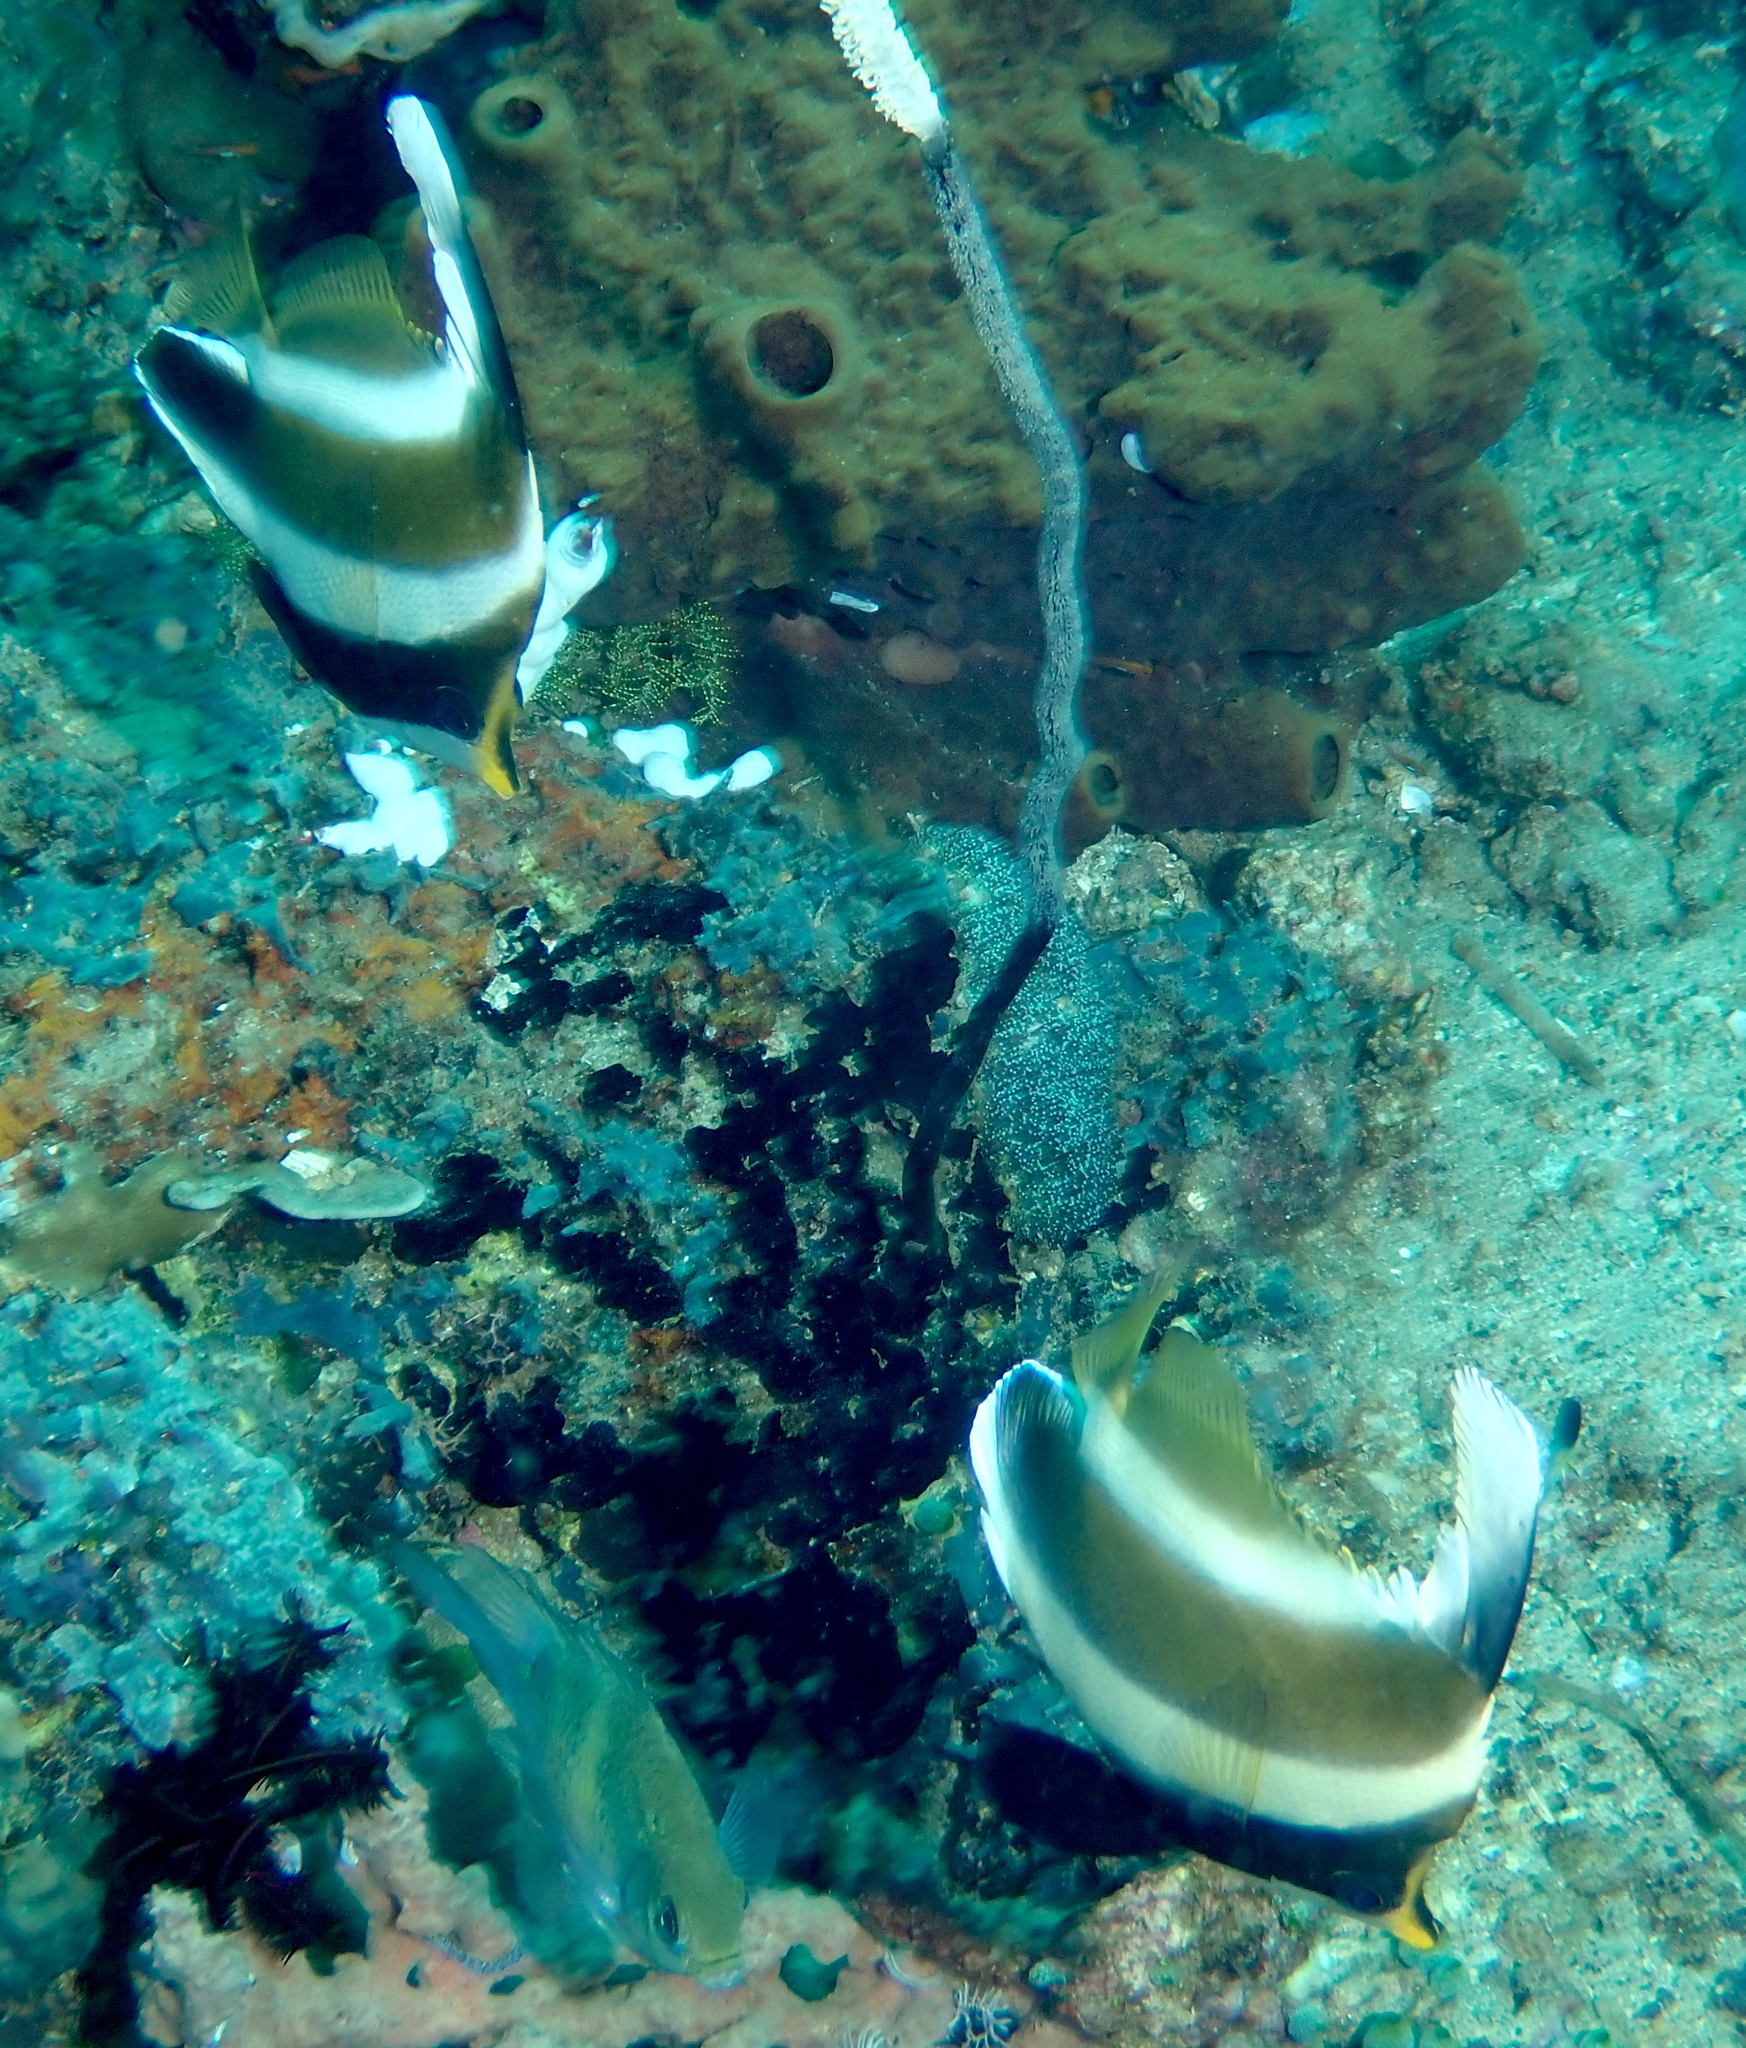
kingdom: Animalia
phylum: Chordata
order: Perciformes
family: Chaetodontidae
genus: Heniochus
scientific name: Heniochus chrysostomus
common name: Horned bannerfish
